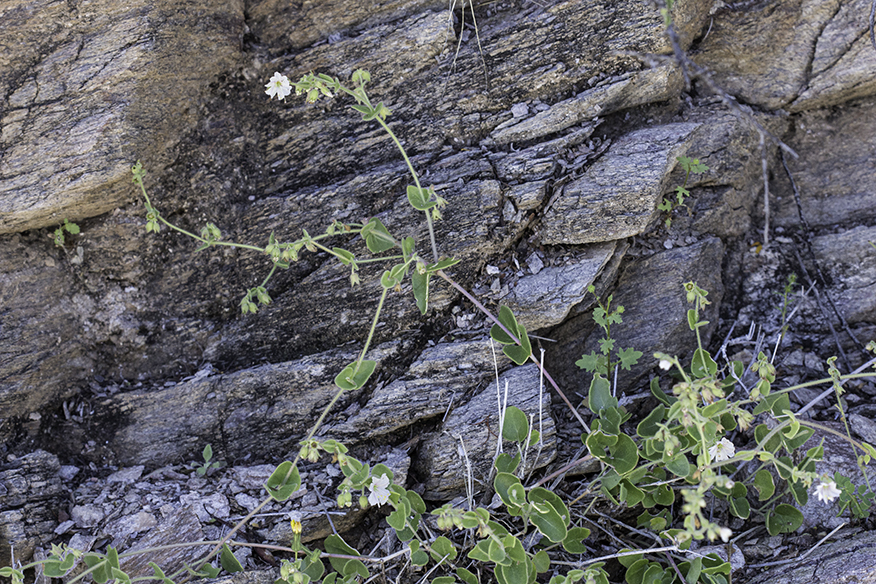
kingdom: Plantae
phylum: Tracheophyta
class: Magnoliopsida
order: Caryophyllales
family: Nyctaginaceae
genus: Mirabilis
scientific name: Mirabilis laevis
